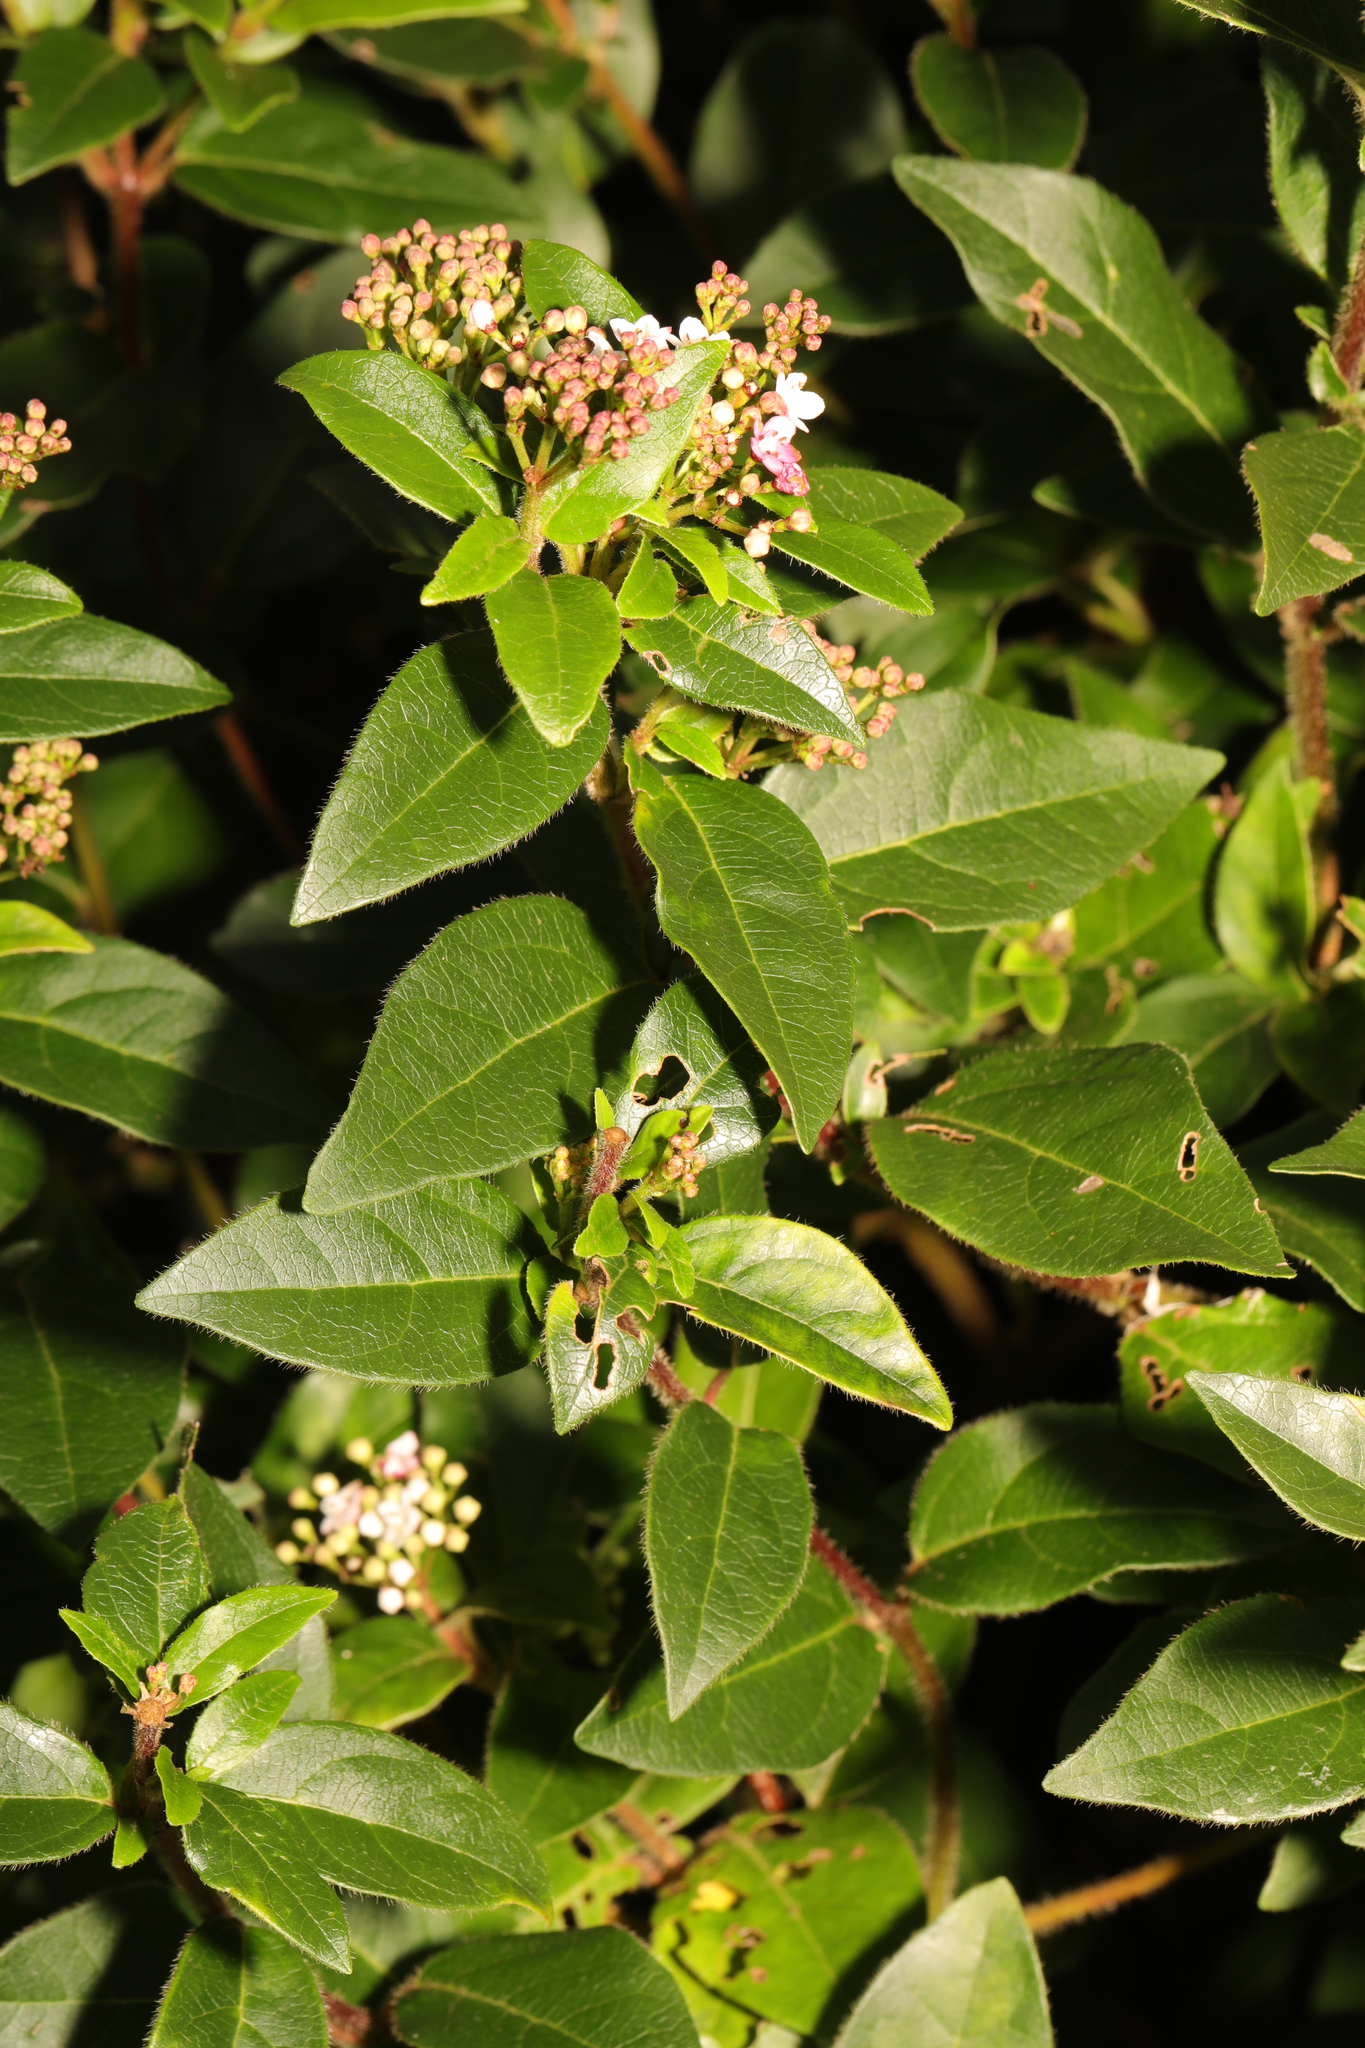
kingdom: Plantae
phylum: Tracheophyta
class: Magnoliopsida
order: Dipsacales
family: Viburnaceae
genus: Viburnum
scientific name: Viburnum tinus
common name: Laurustinus
